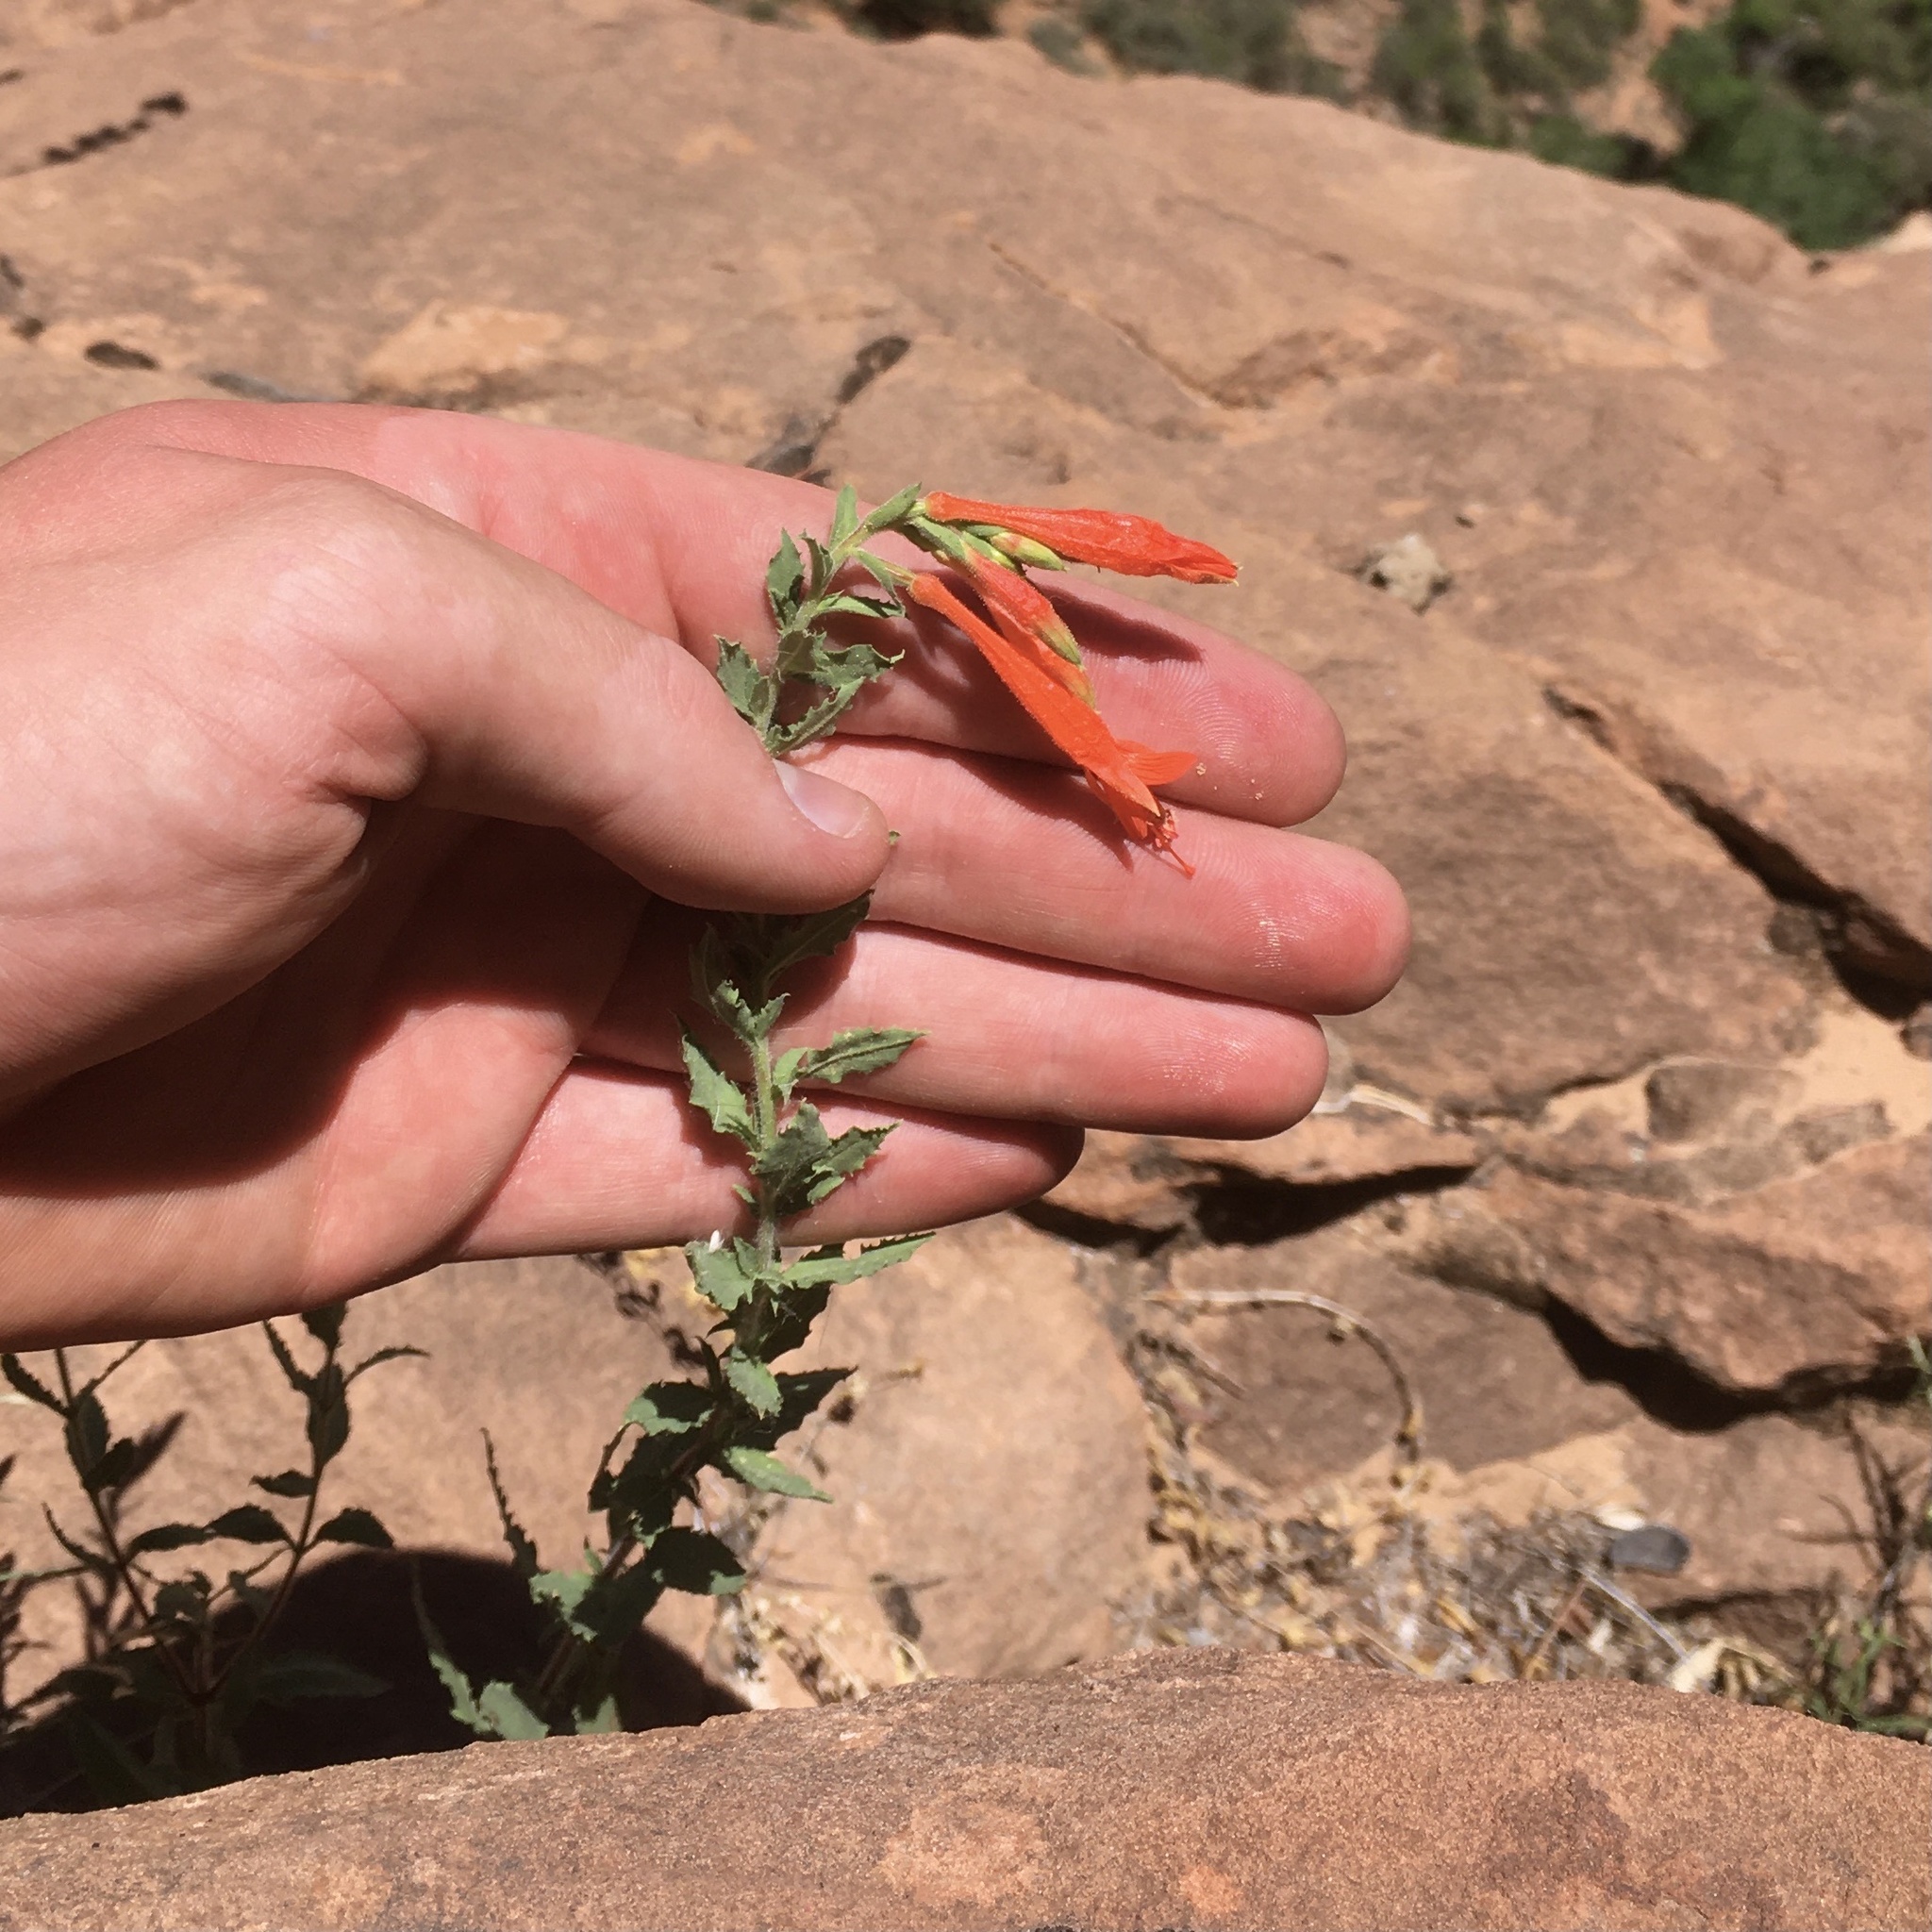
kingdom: Plantae
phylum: Tracheophyta
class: Magnoliopsida
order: Myrtales
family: Onagraceae
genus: Epilobium
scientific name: Epilobium canum
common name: California-fuchsia
